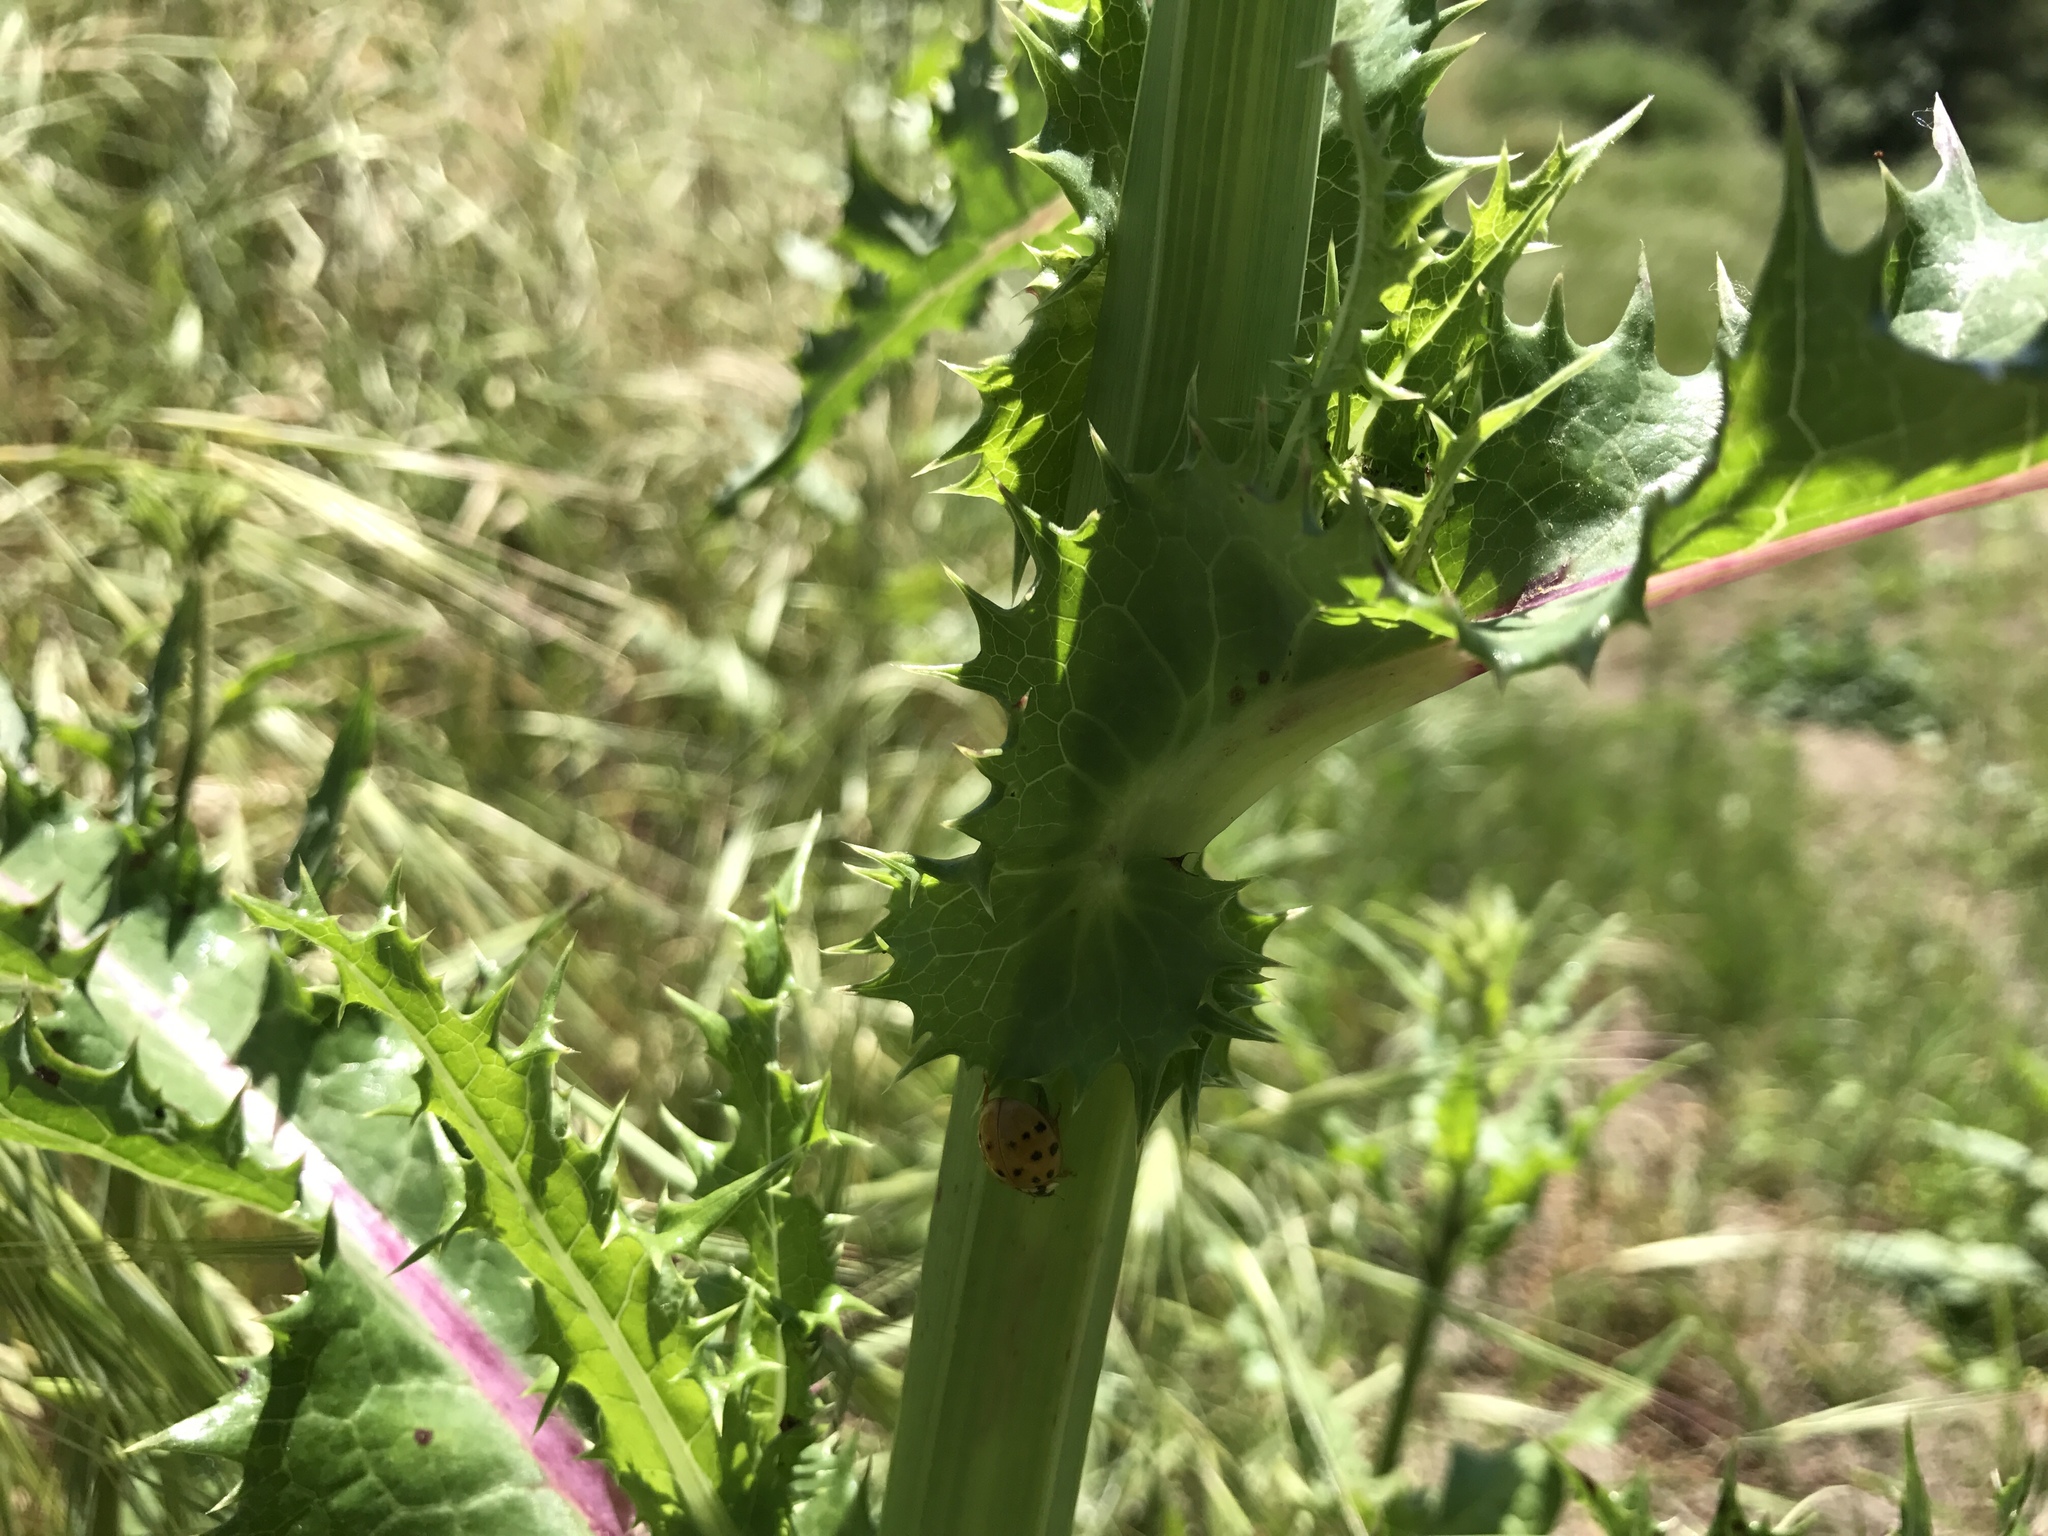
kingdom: Plantae
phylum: Tracheophyta
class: Magnoliopsida
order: Asterales
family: Asteraceae
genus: Sonchus
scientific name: Sonchus asper
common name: Prickly sow-thistle
